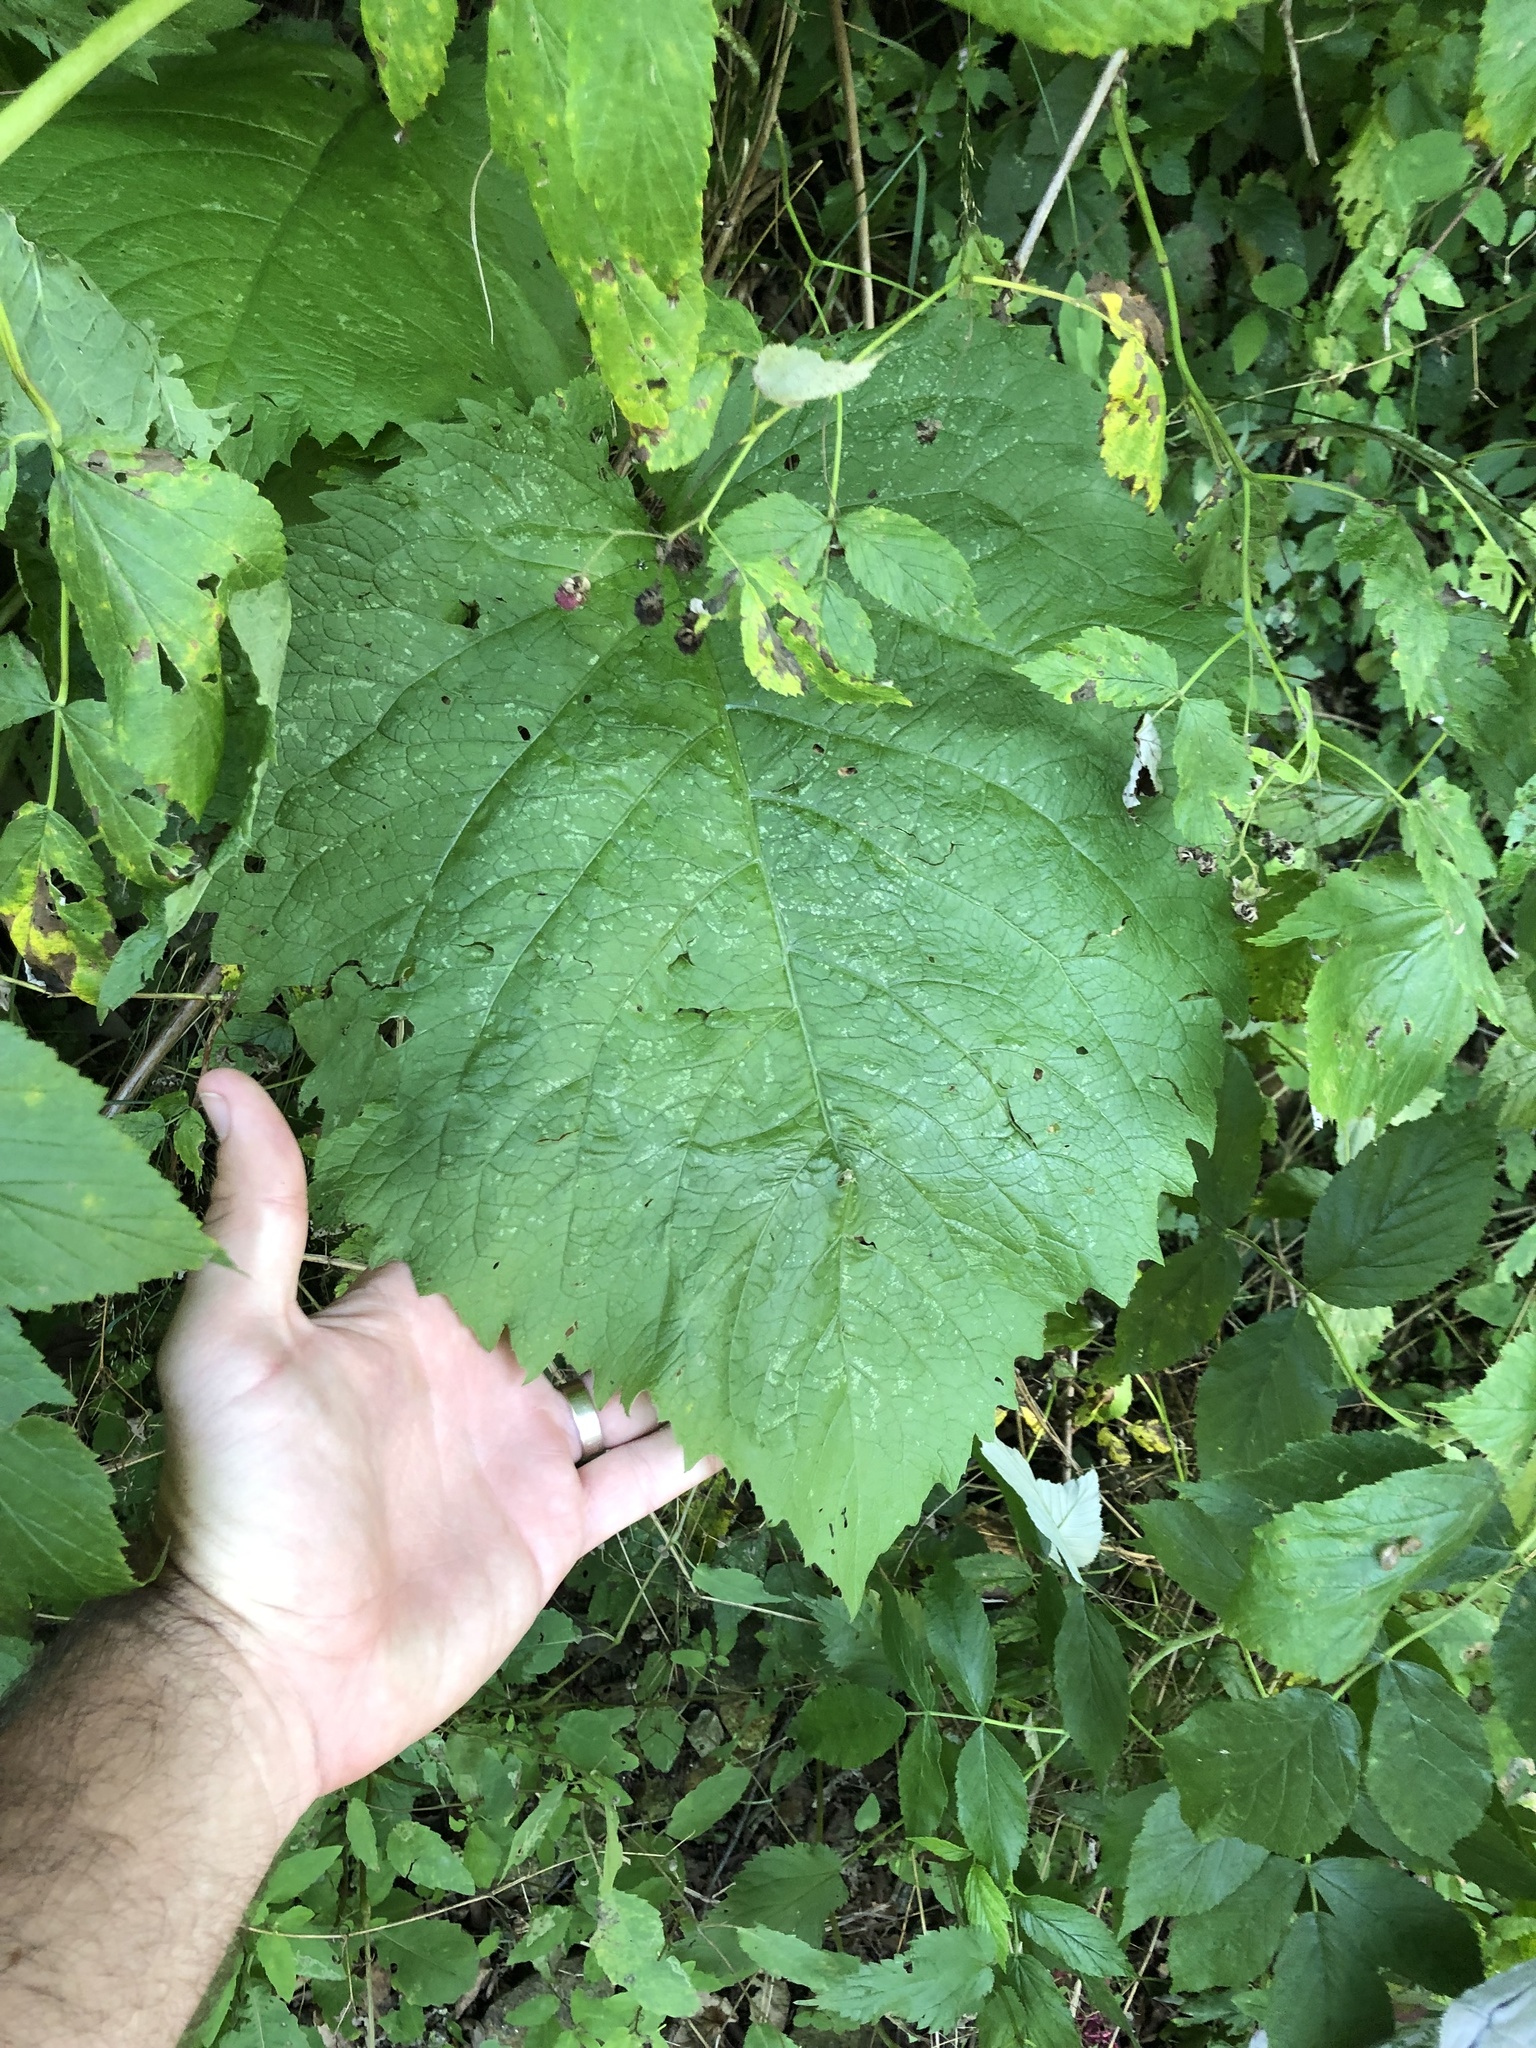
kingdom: Plantae
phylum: Tracheophyta
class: Magnoliopsida
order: Asterales
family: Asteraceae
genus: Telekia
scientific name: Telekia speciosa
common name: Yellow oxeye
